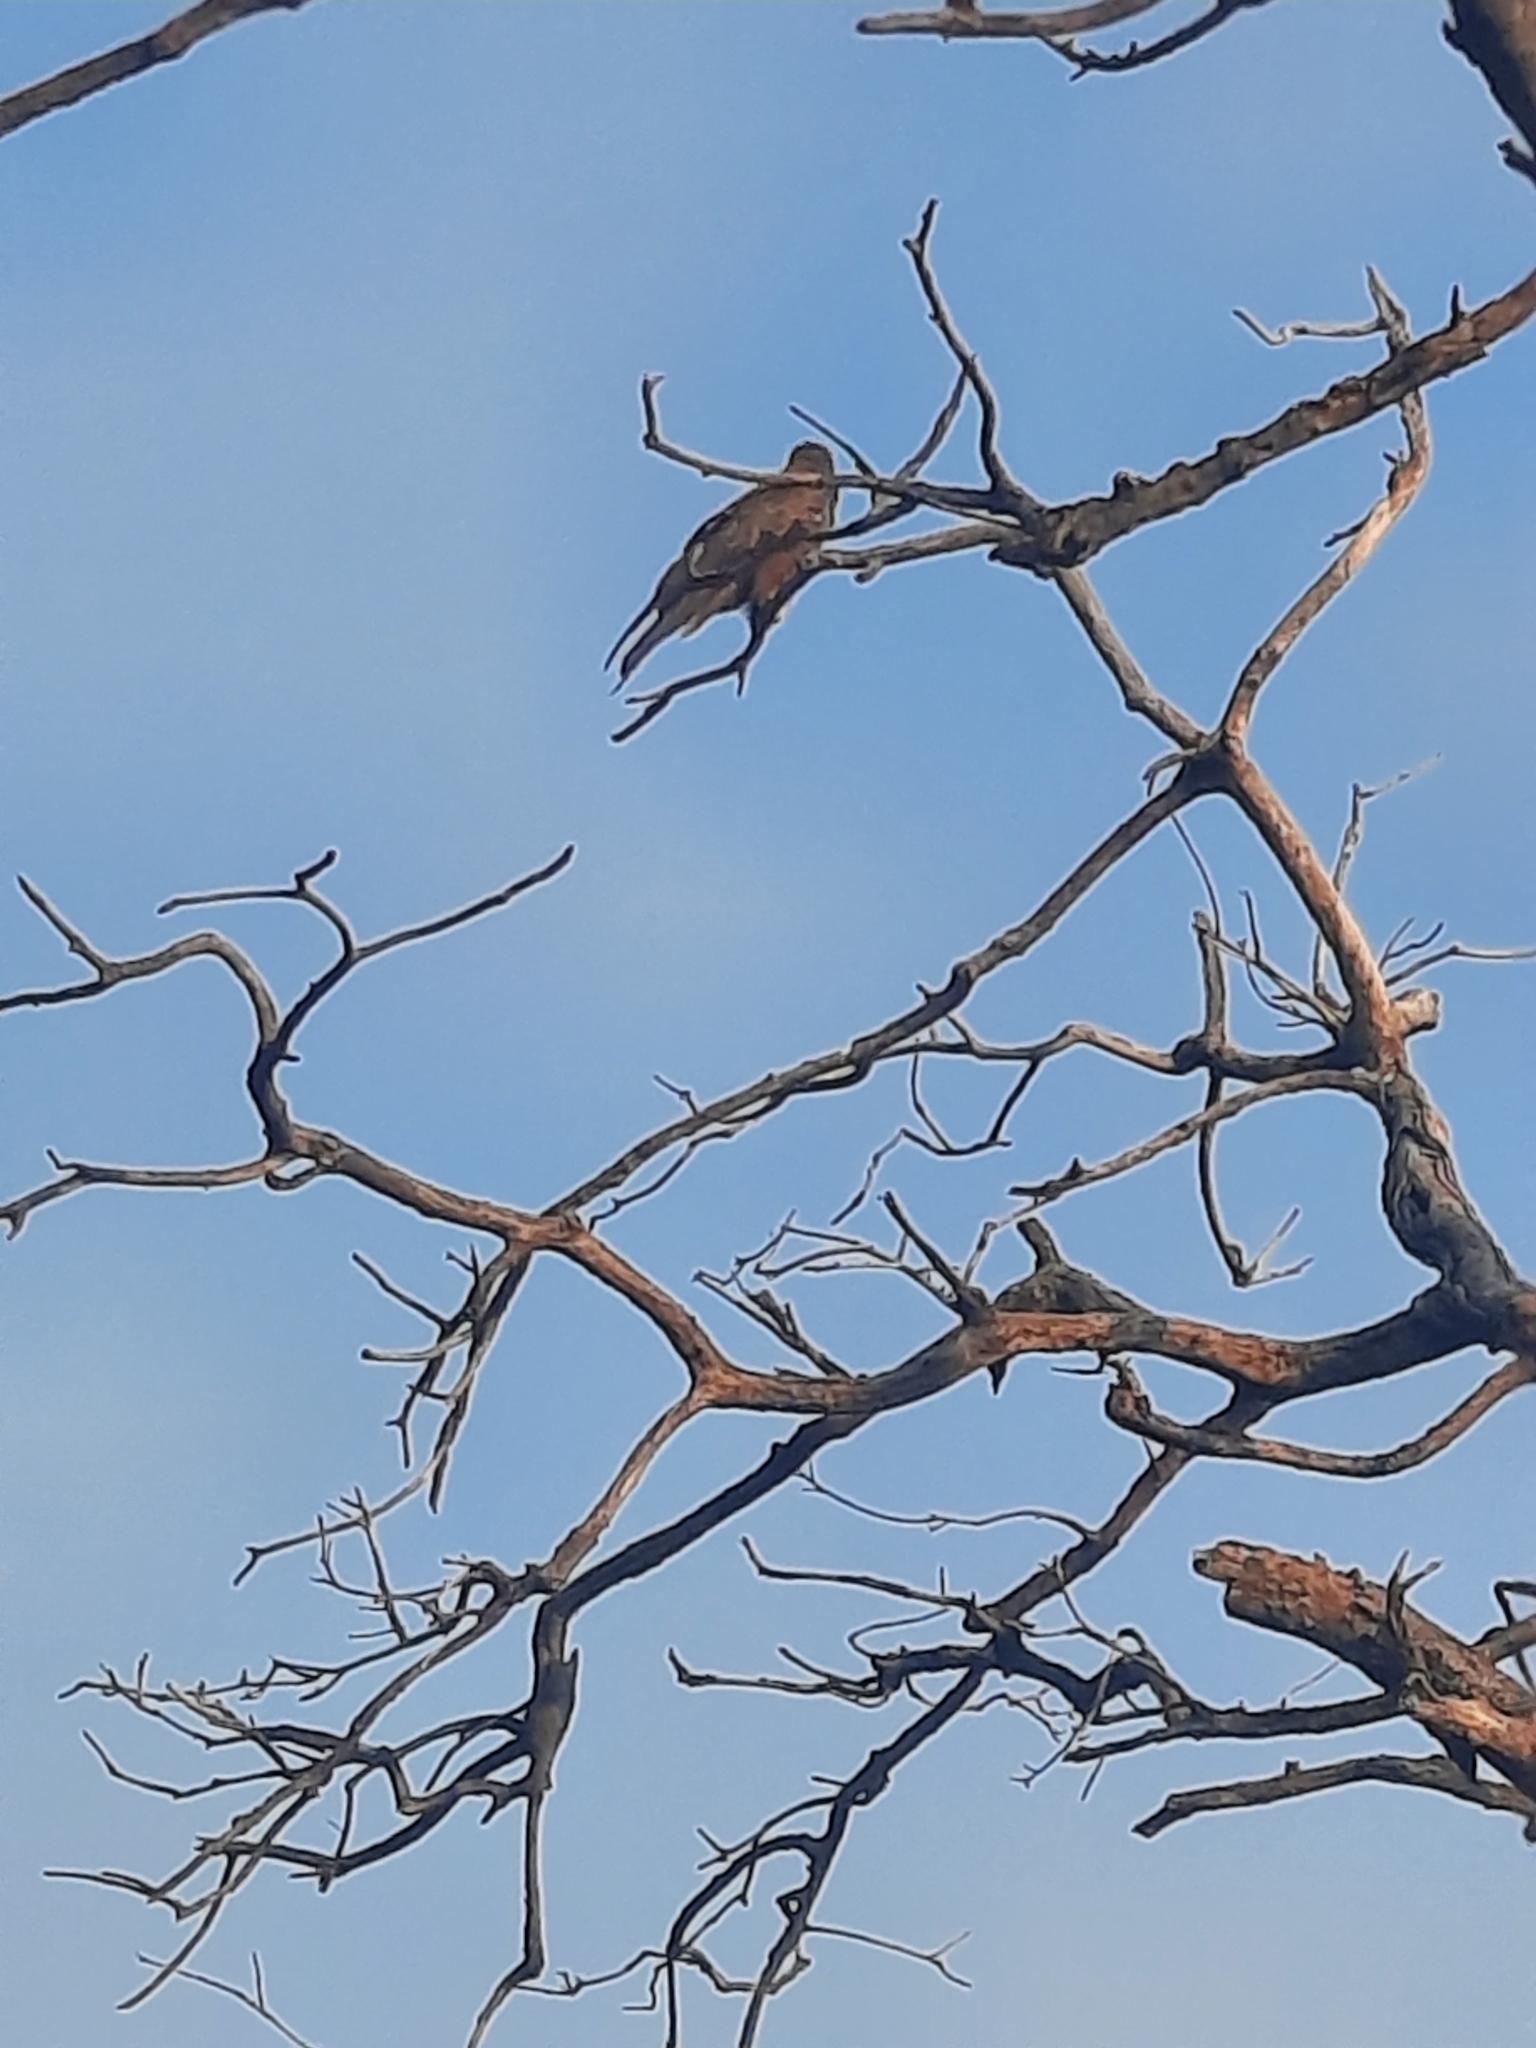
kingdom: Animalia
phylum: Chordata
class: Aves
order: Accipitriformes
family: Accipitridae
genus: Milvus
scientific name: Milvus migrans
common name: Black kite
